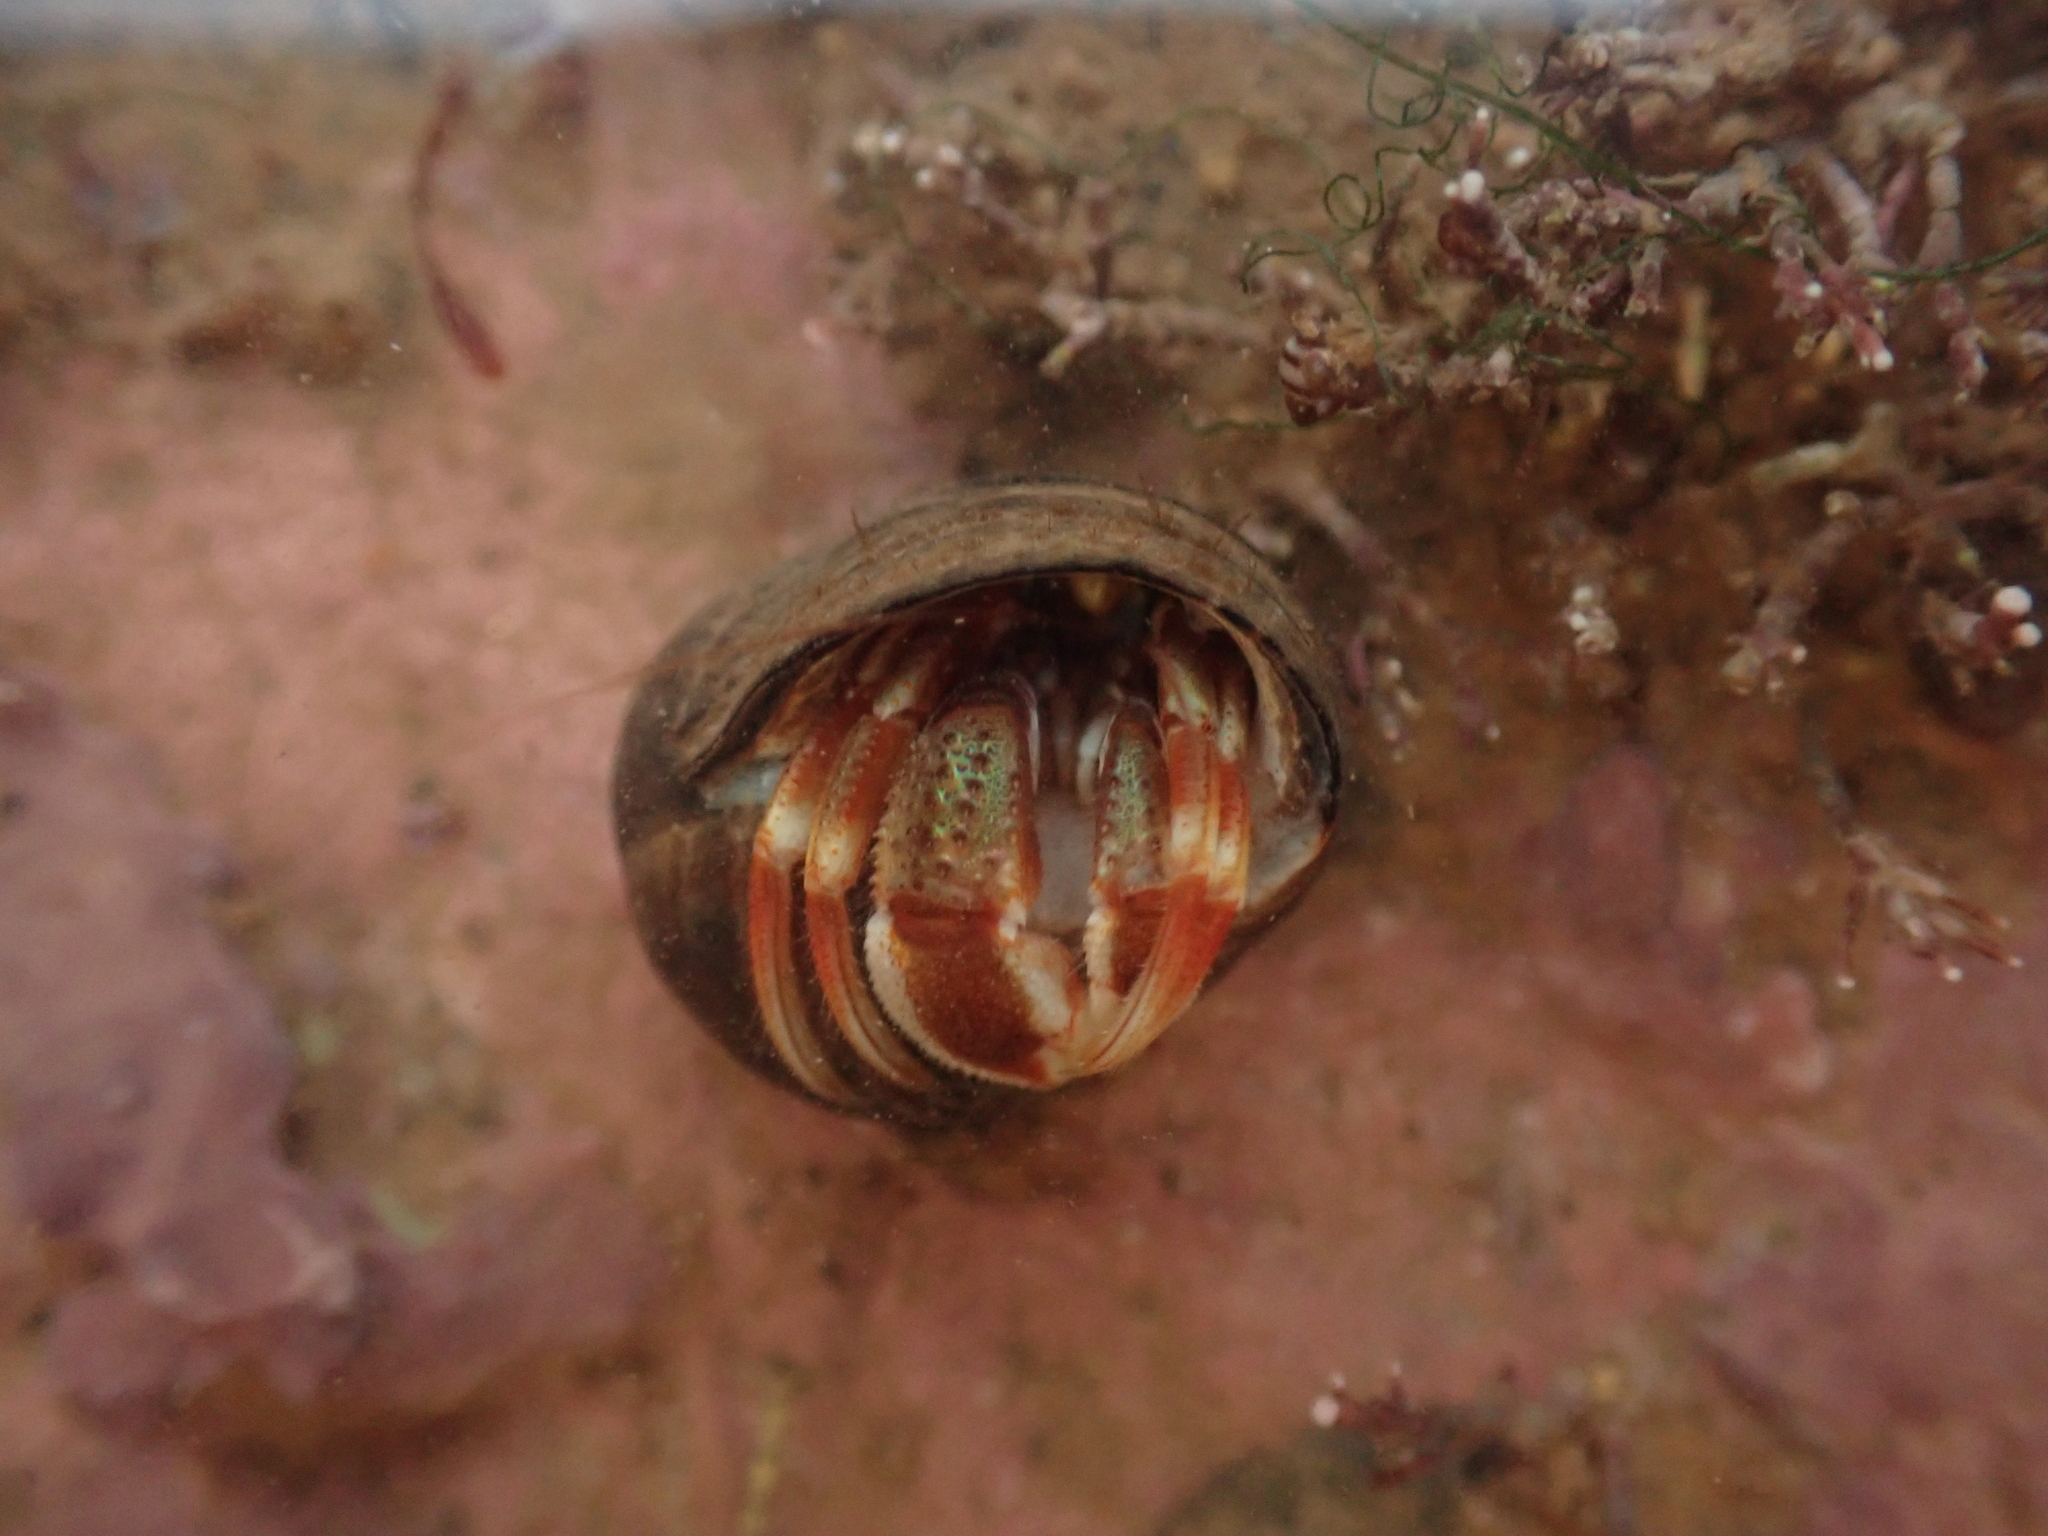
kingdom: Animalia
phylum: Arthropoda
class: Malacostraca
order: Decapoda
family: Paguridae
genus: Pagurus
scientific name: Pagurus acadianus
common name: Acadian hermit crab
